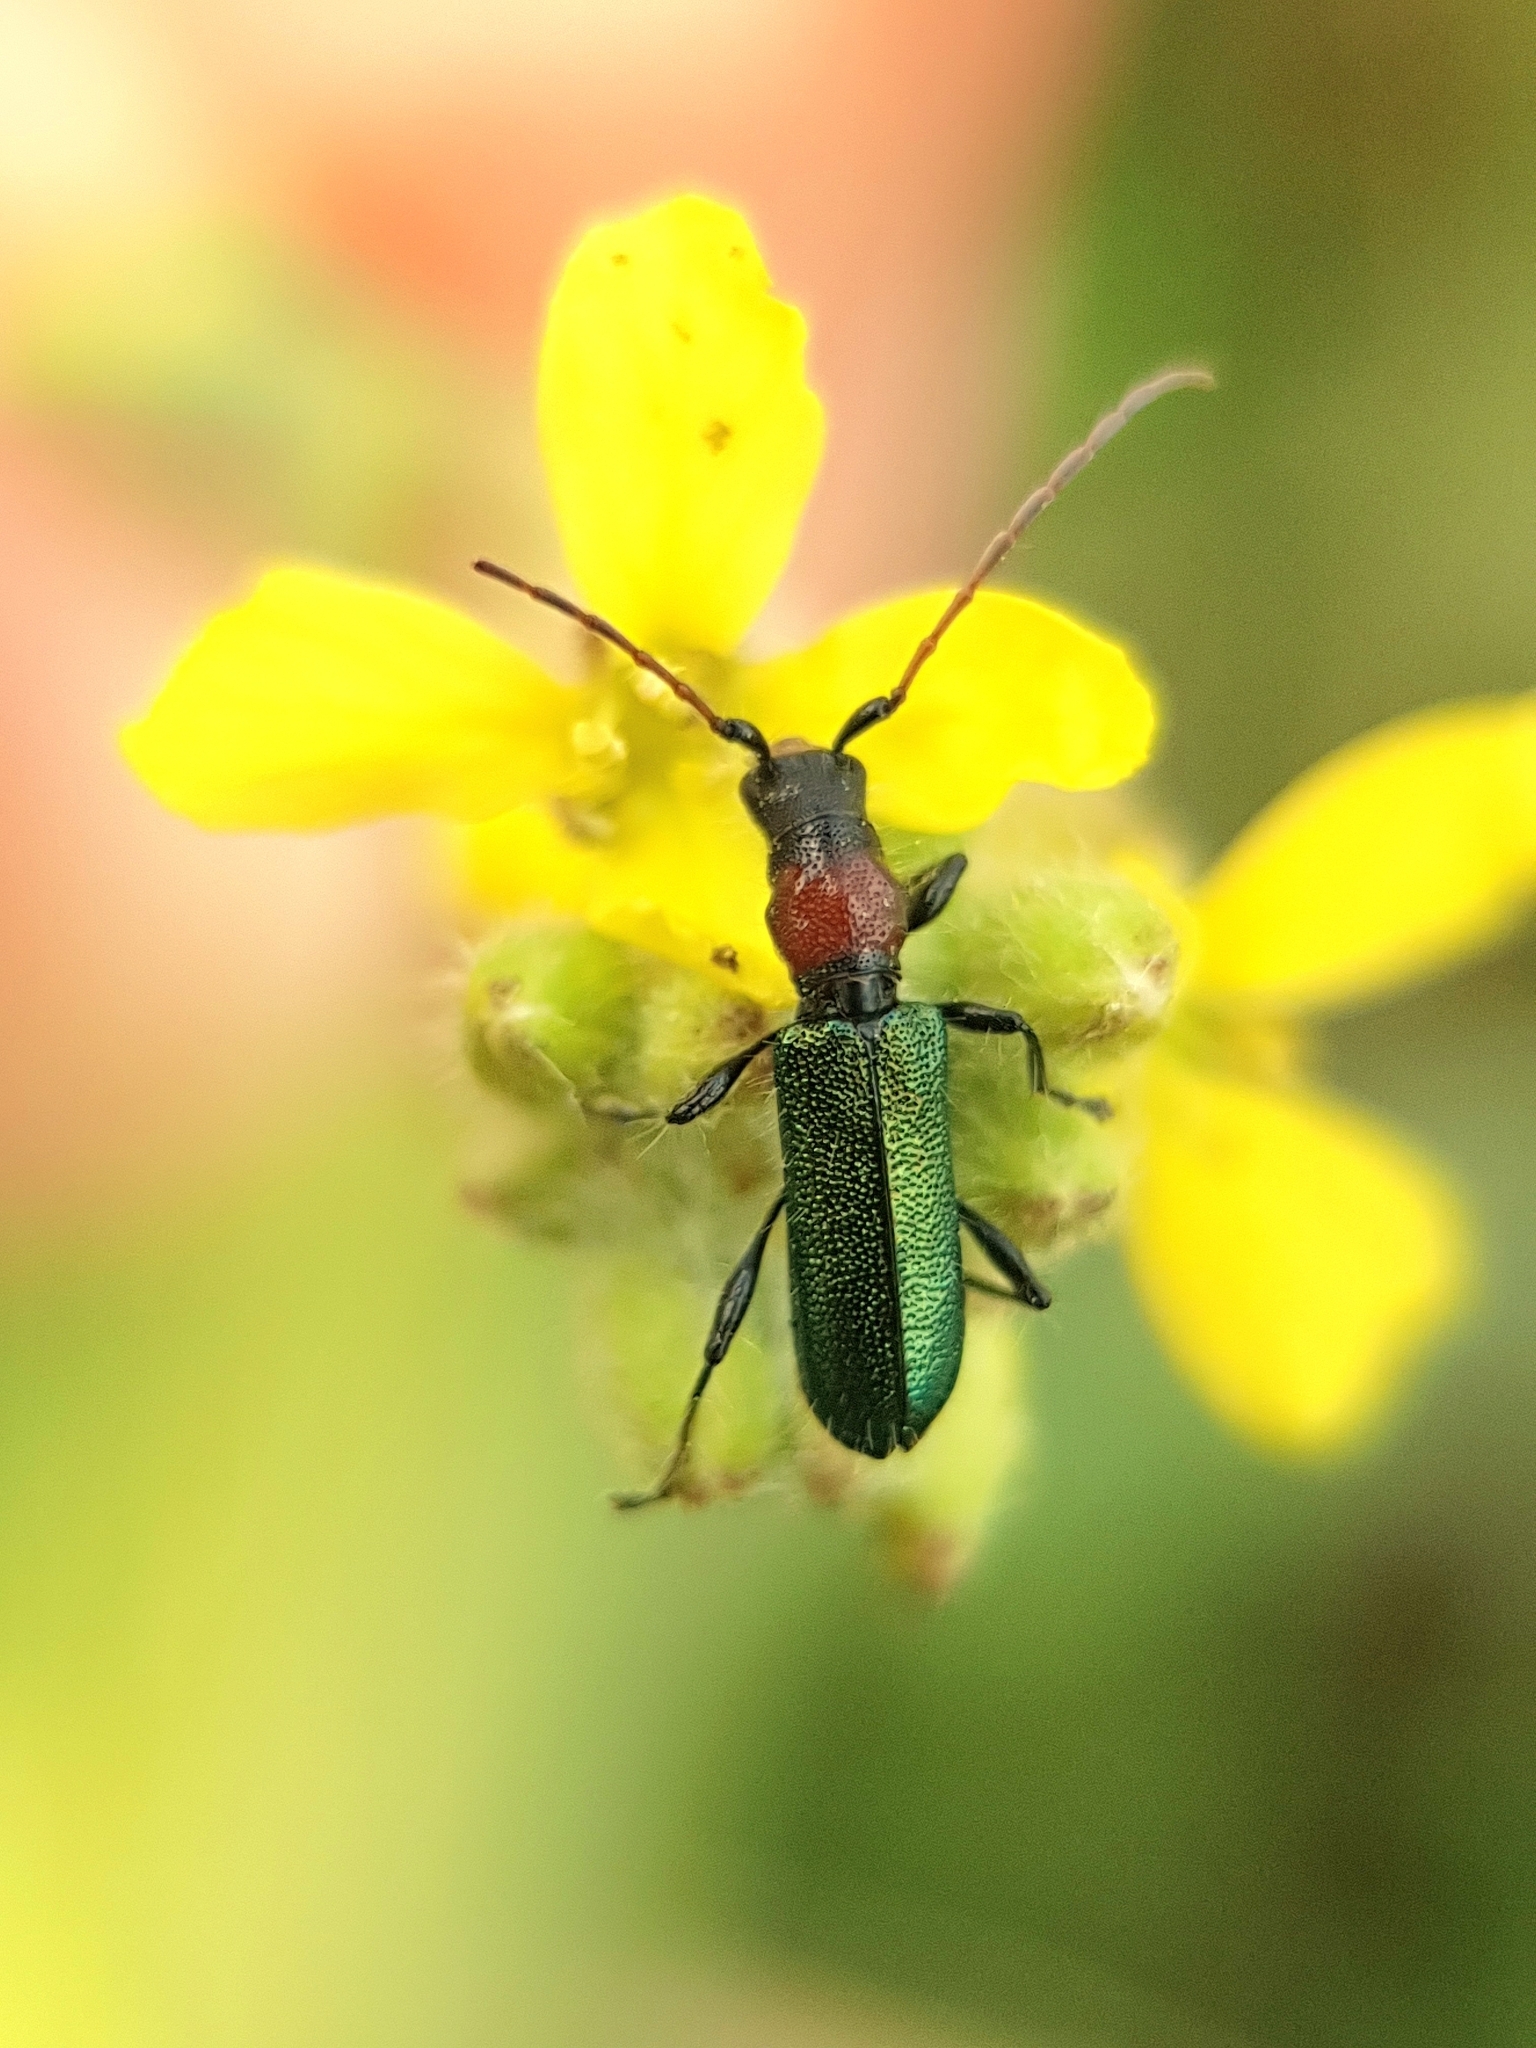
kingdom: Animalia
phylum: Arthropoda
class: Insecta
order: Coleoptera
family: Cerambycidae
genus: Certallum
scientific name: Certallum ebulinum
